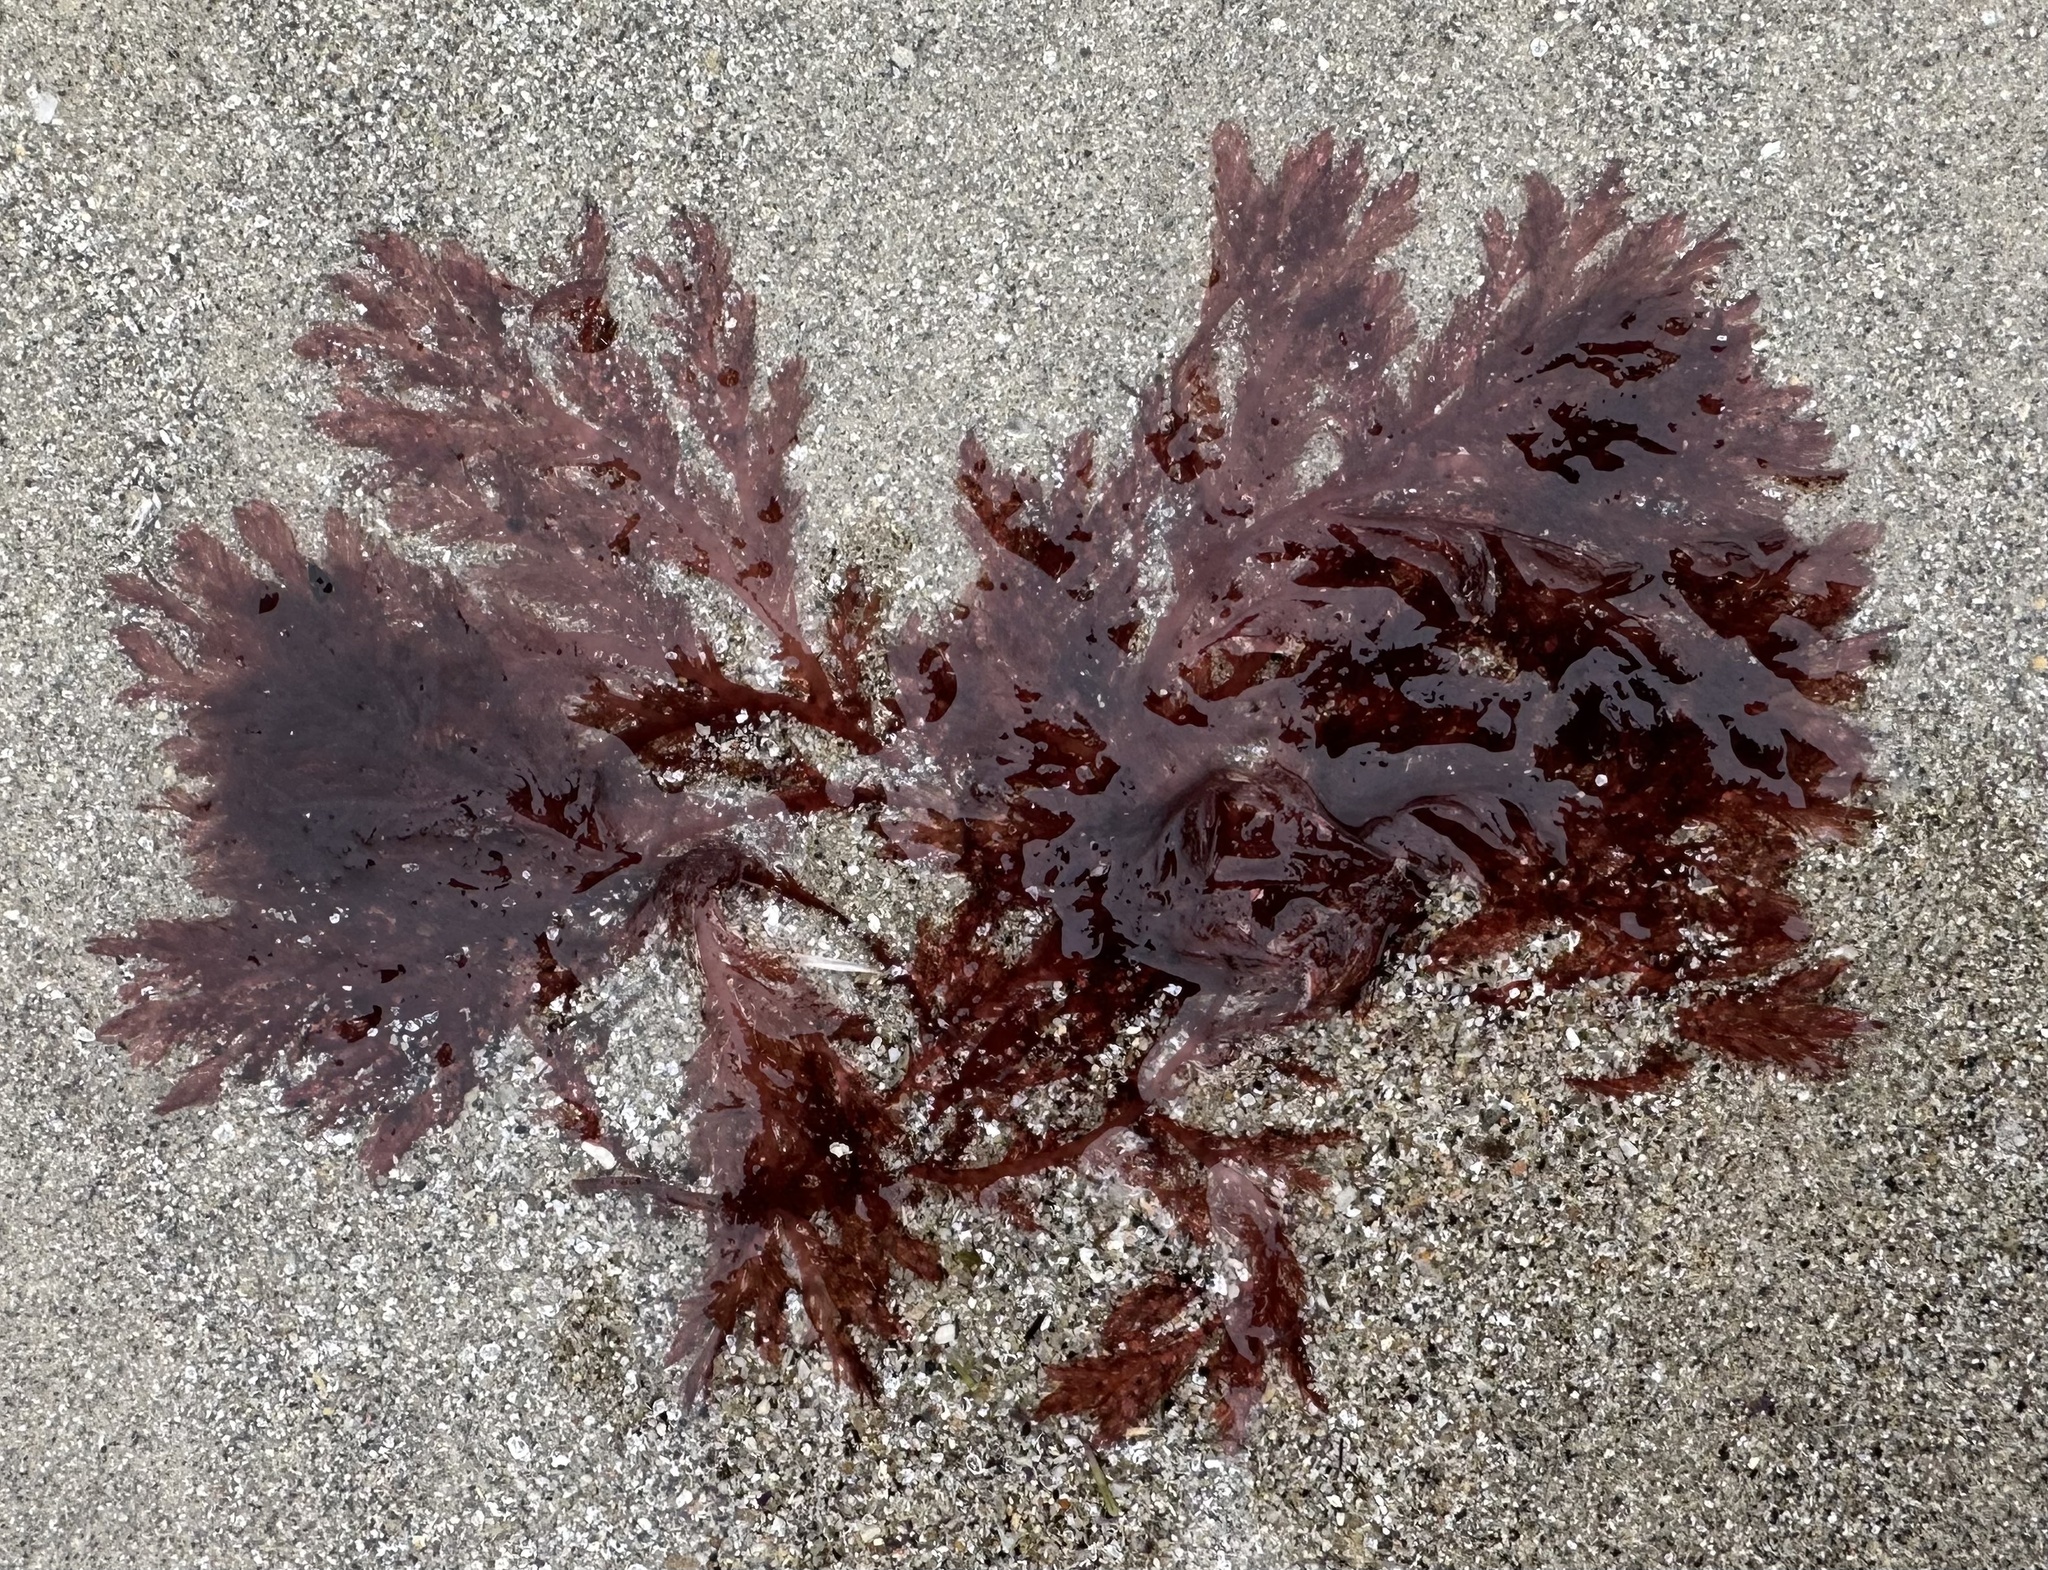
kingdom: Plantae
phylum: Rhodophyta
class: Florideophyceae
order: Plocamiales
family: Plocamiaceae
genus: Plocamium
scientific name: Plocamium cartilagineum
